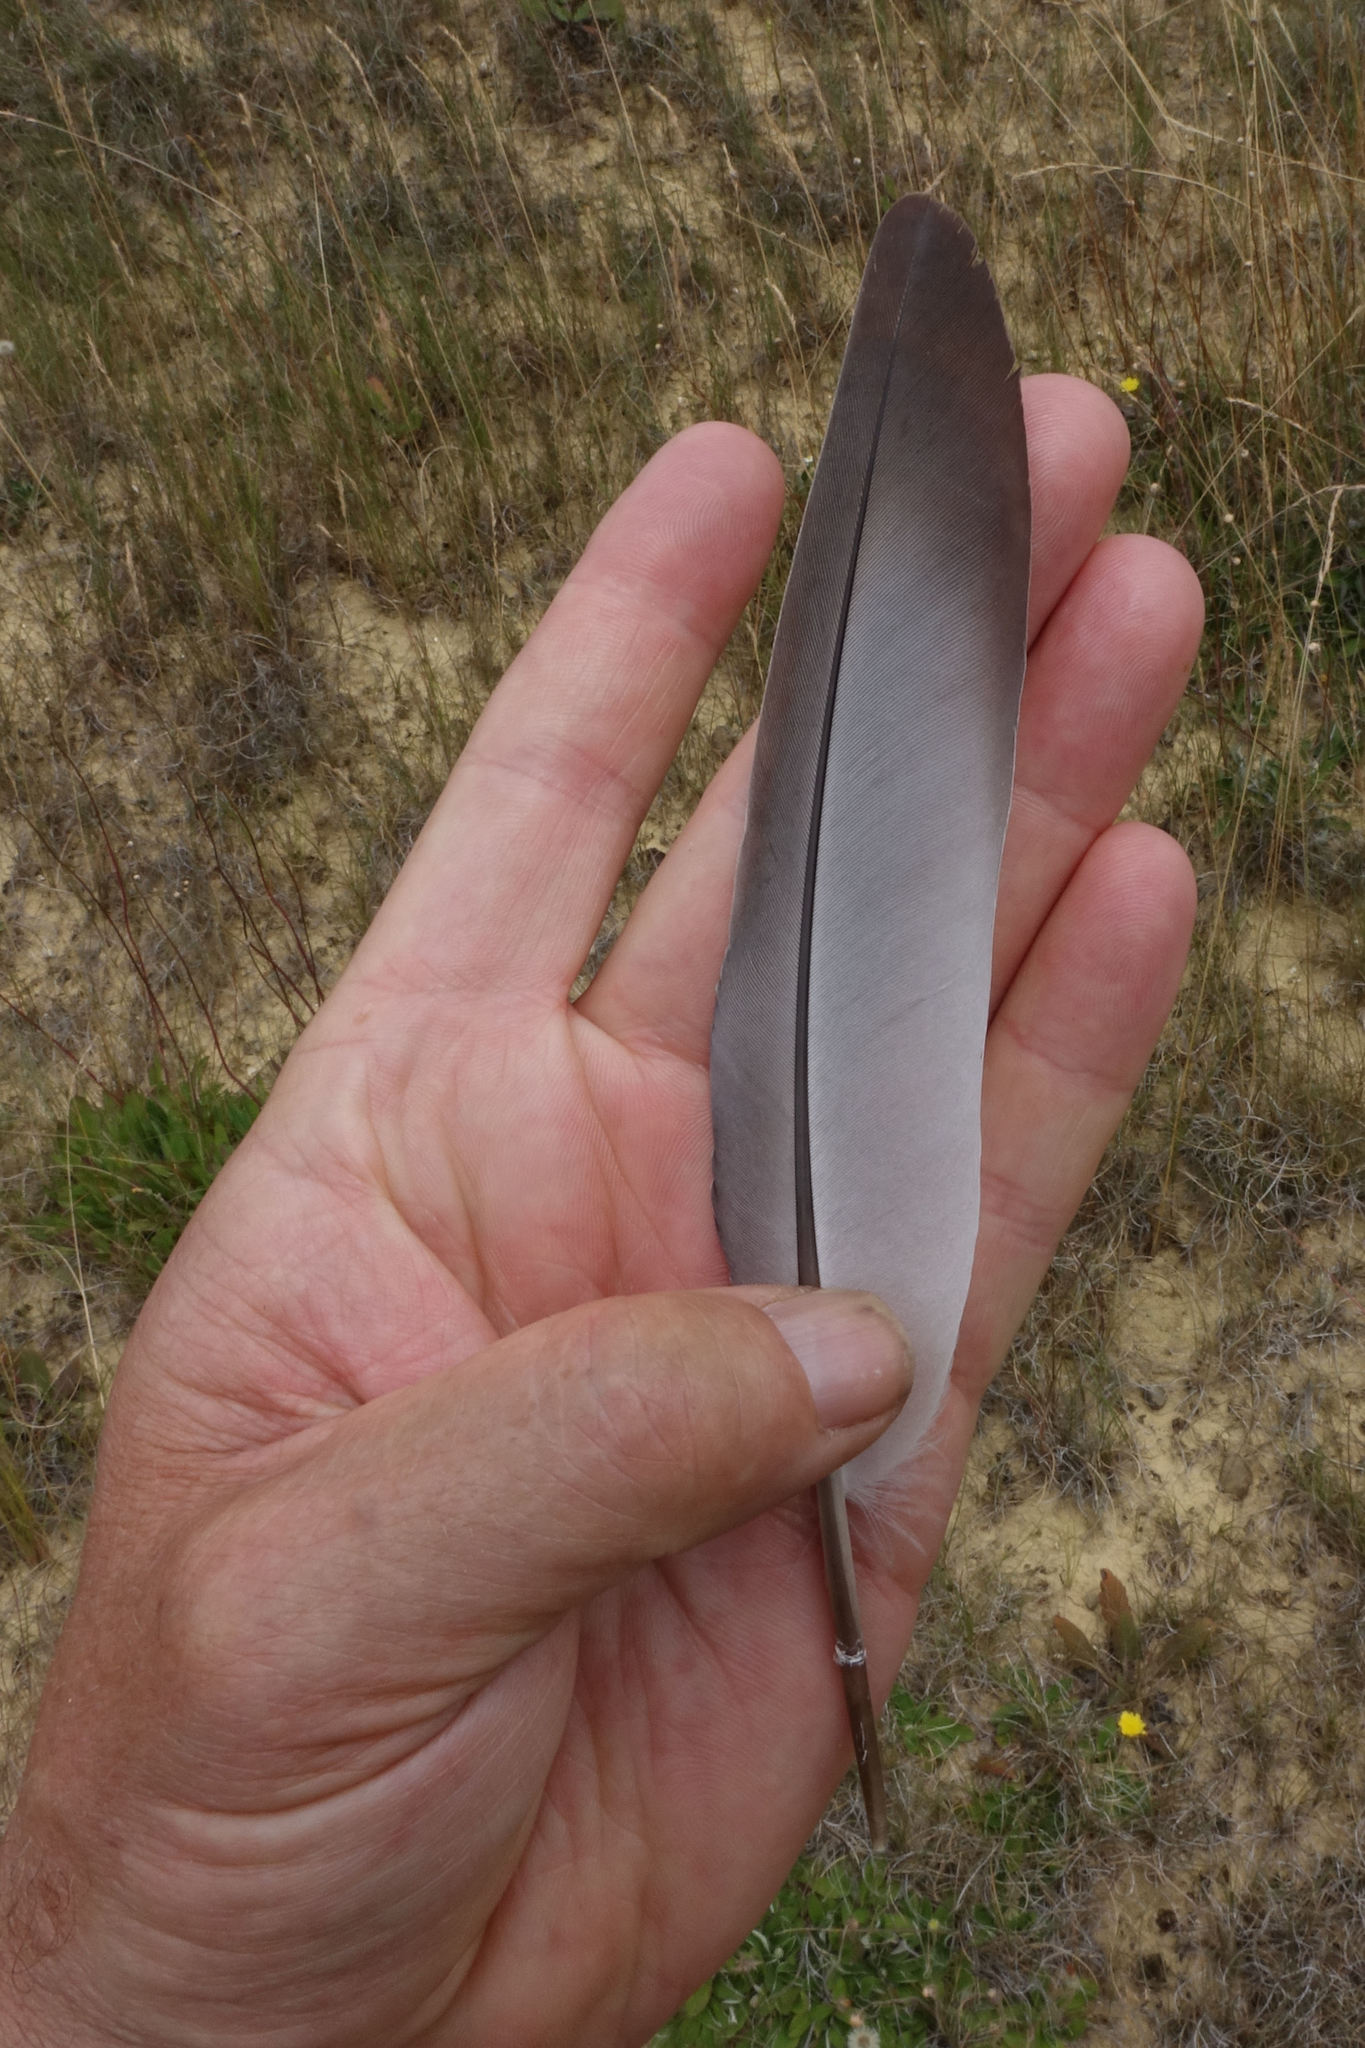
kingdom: Animalia
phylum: Chordata
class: Aves
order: Columbiformes
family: Columbidae
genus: Columba
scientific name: Columba livia
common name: Rock pigeon
